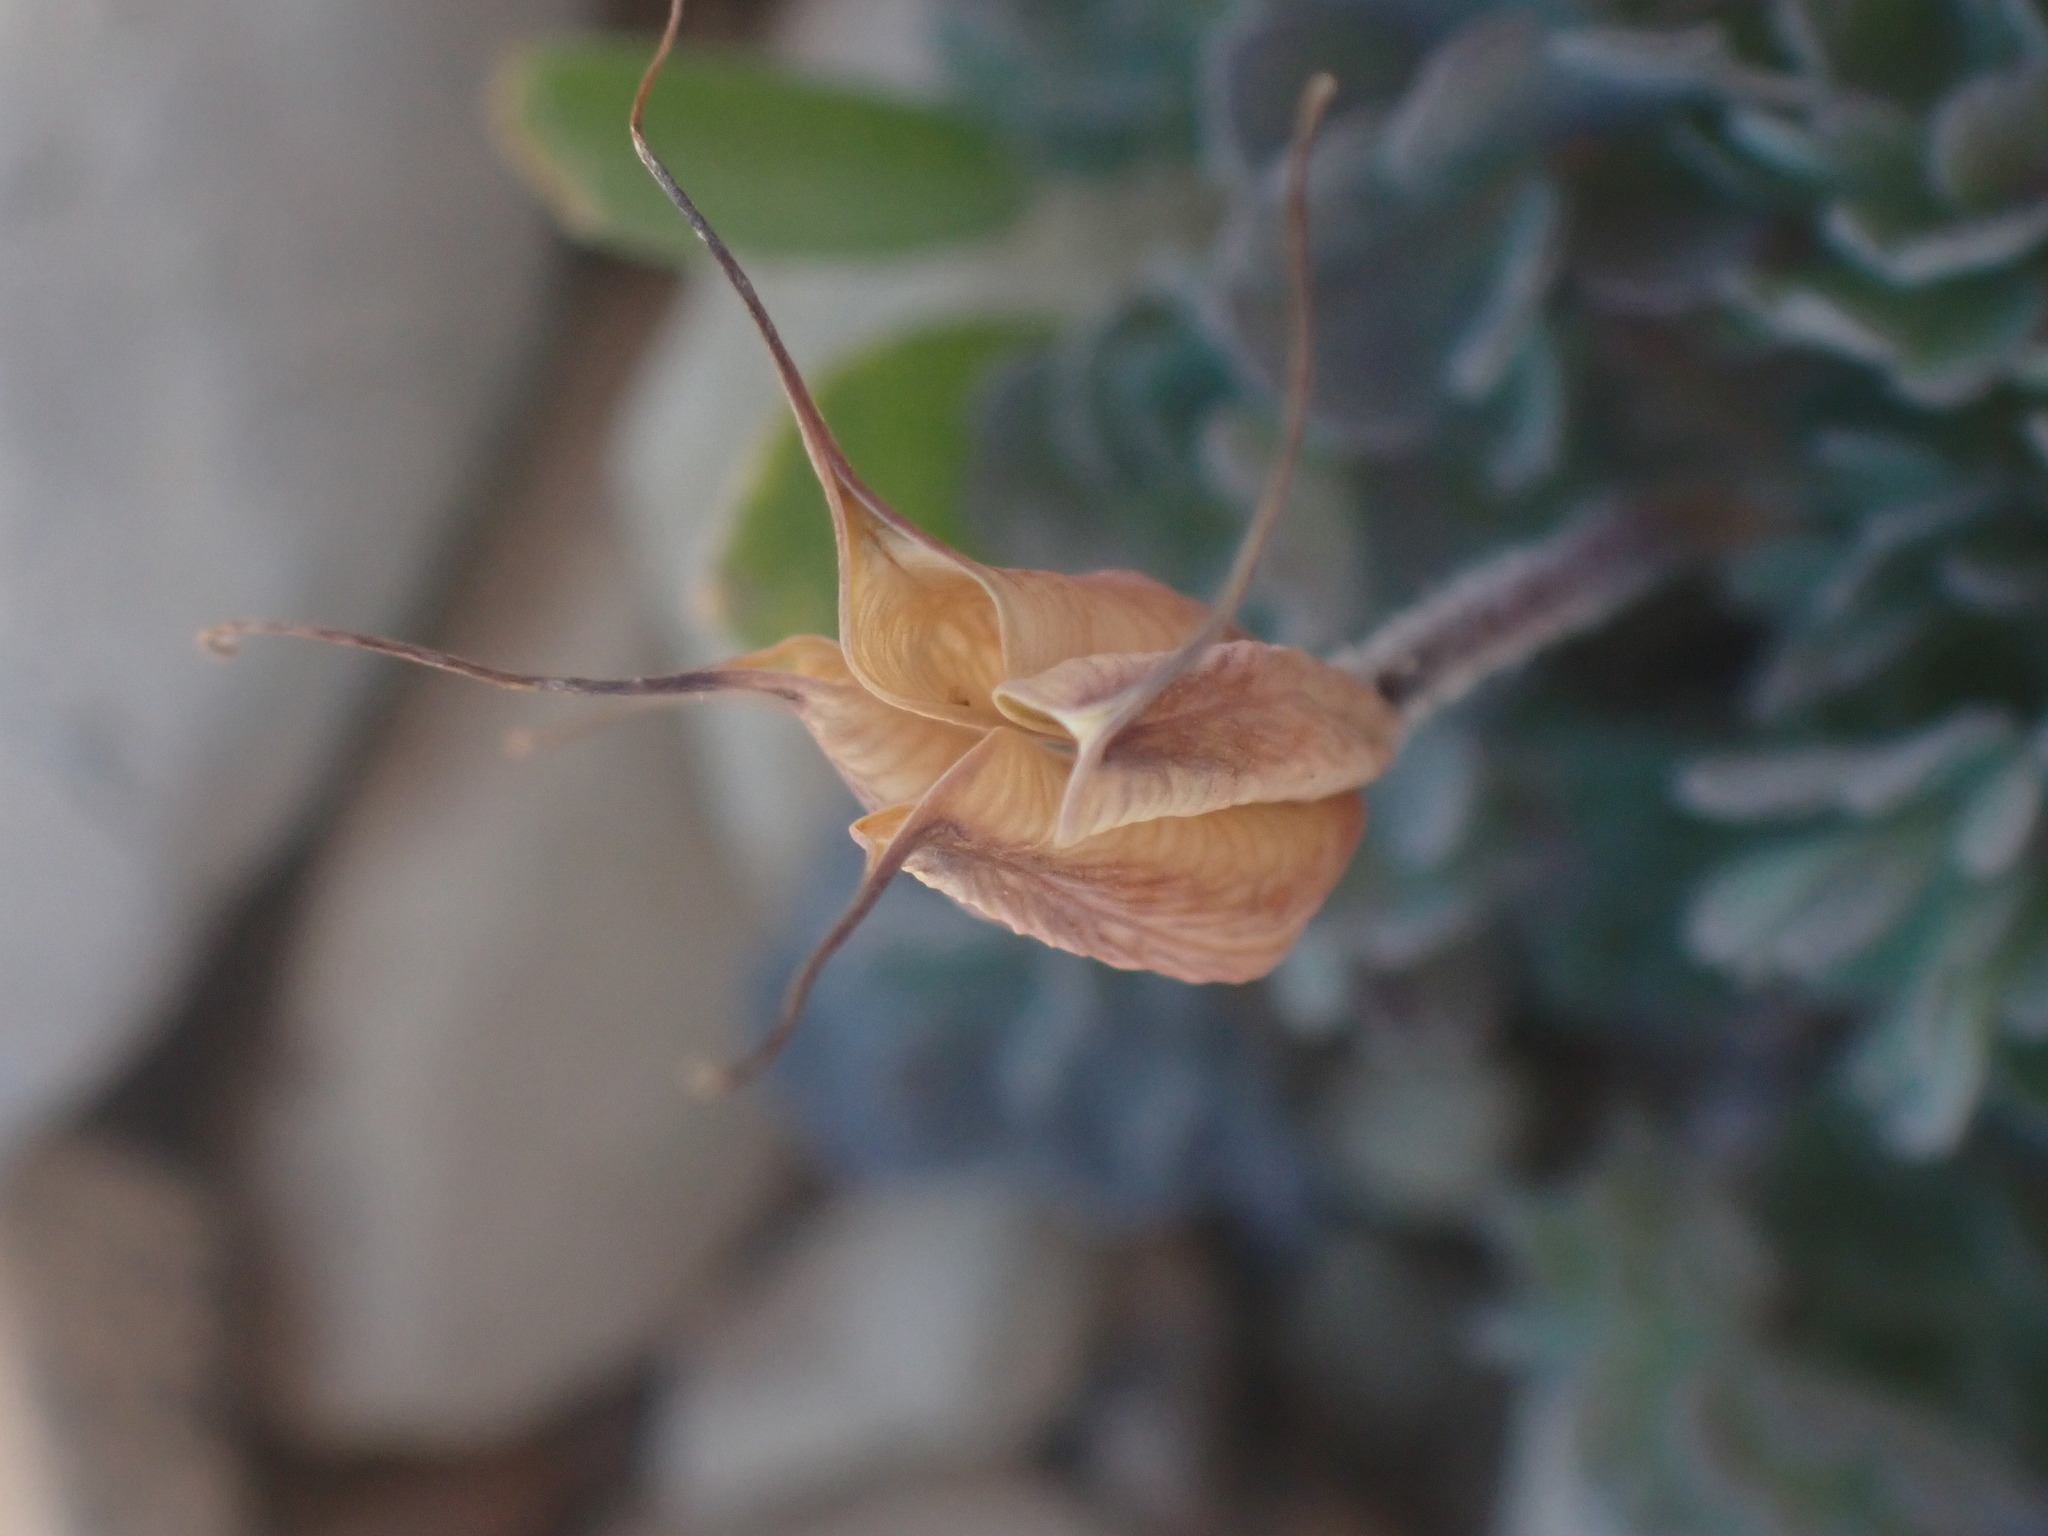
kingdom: Plantae
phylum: Tracheophyta
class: Magnoliopsida
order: Ranunculales
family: Ranunculaceae
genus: Aquilegia
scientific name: Aquilegia jonesii
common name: Jones' columbine
